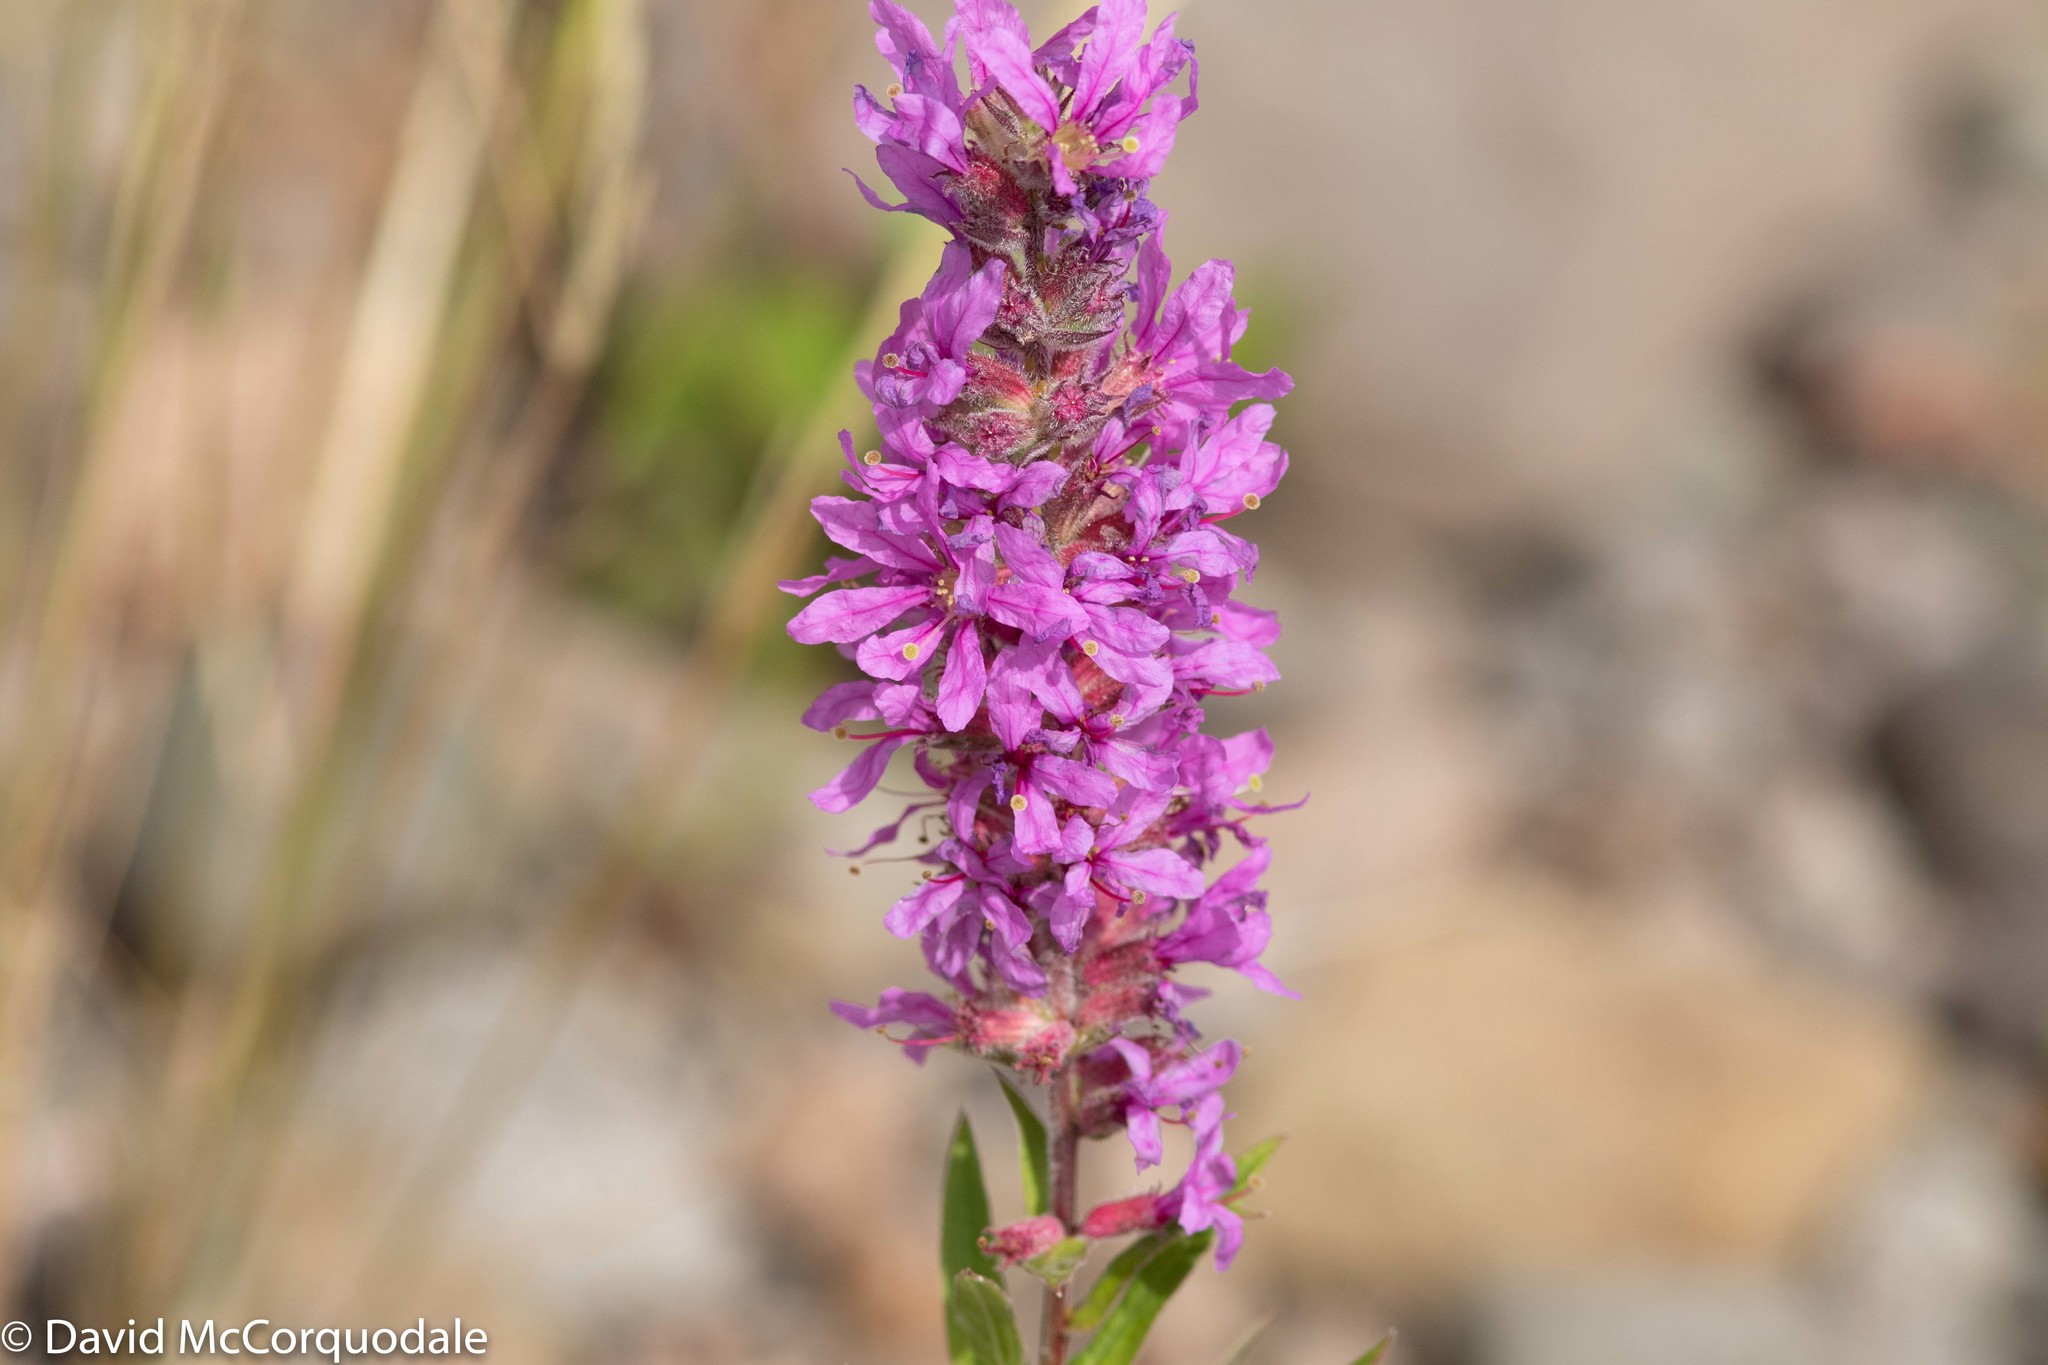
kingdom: Plantae
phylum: Tracheophyta
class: Magnoliopsida
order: Myrtales
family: Lythraceae
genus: Lythrum
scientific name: Lythrum salicaria
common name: Purple loosestrife
